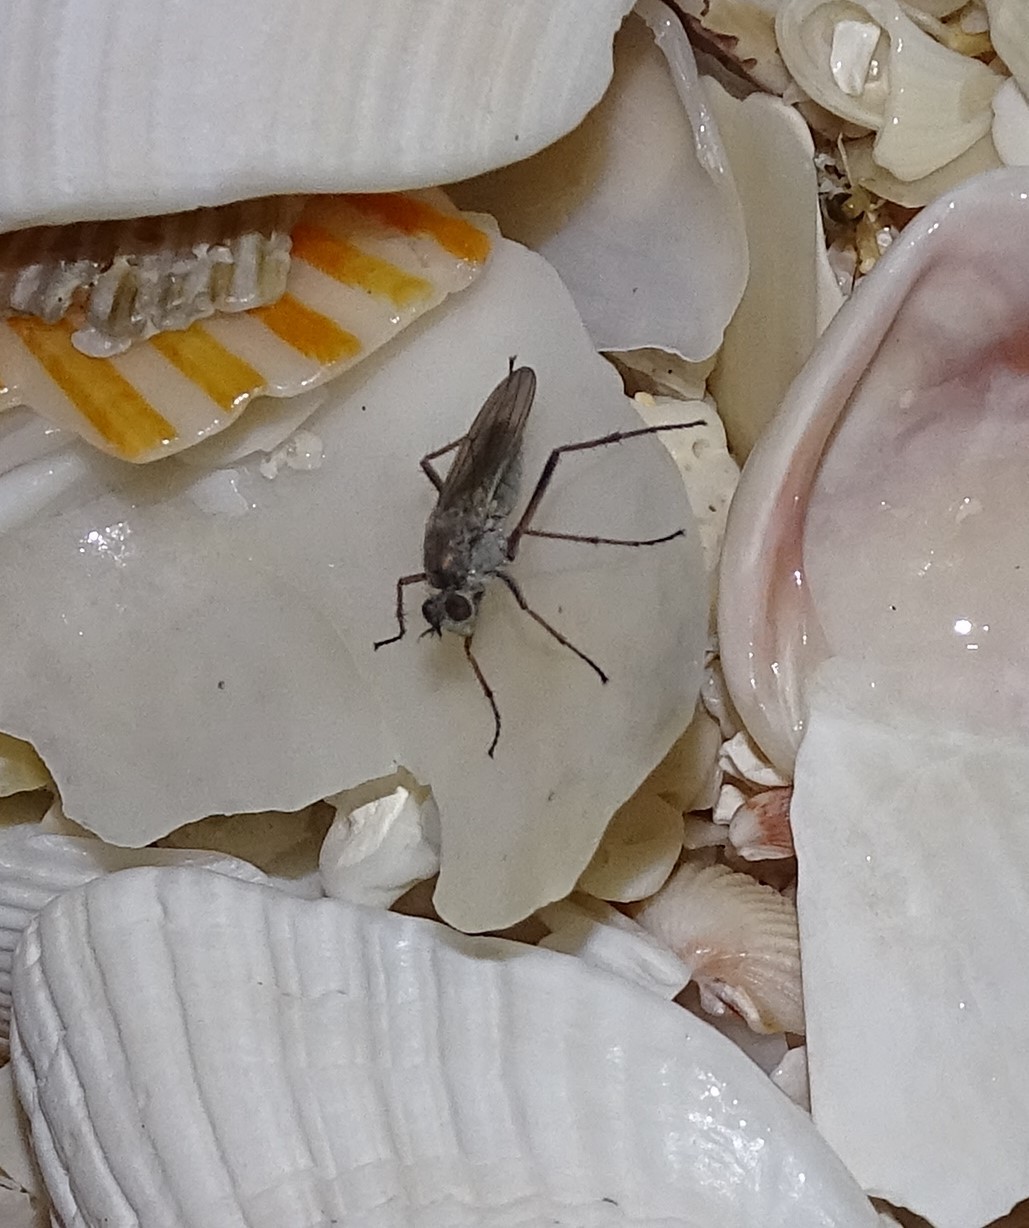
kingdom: Animalia
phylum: Arthropoda
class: Insecta
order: Diptera
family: Dolichopodidae
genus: Hypocharassus
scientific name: Hypocharassus pruinosus
